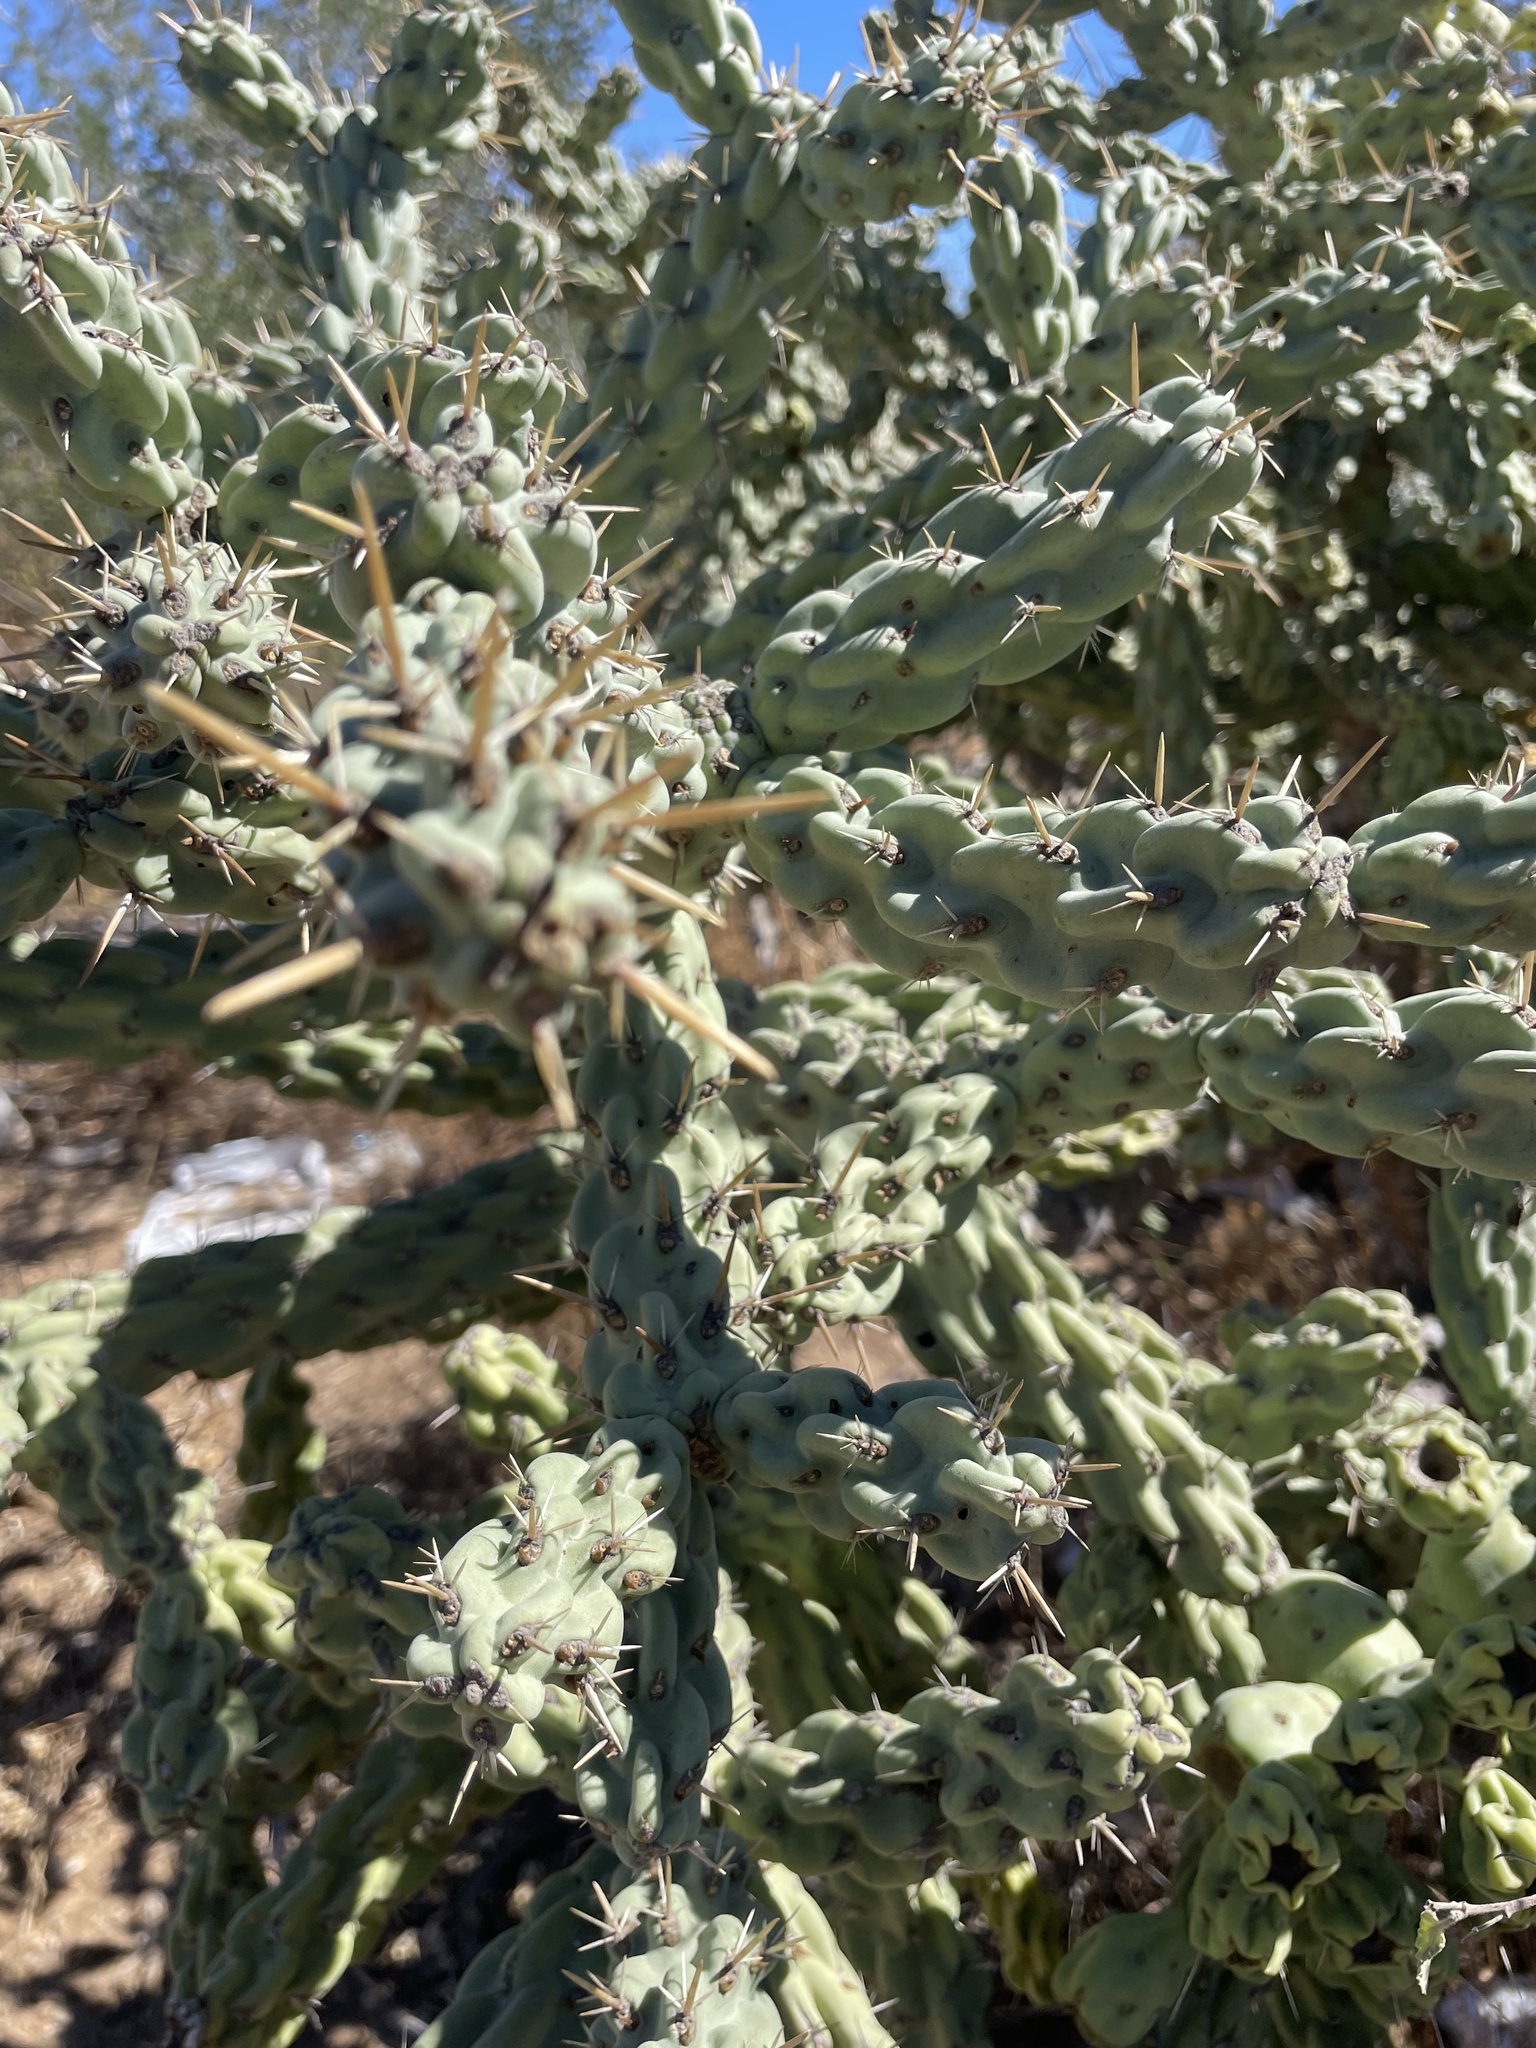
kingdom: Plantae
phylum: Tracheophyta
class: Magnoliopsida
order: Caryophyllales
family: Cactaceae
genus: Cylindropuntia
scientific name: Cylindropuntia cholla
